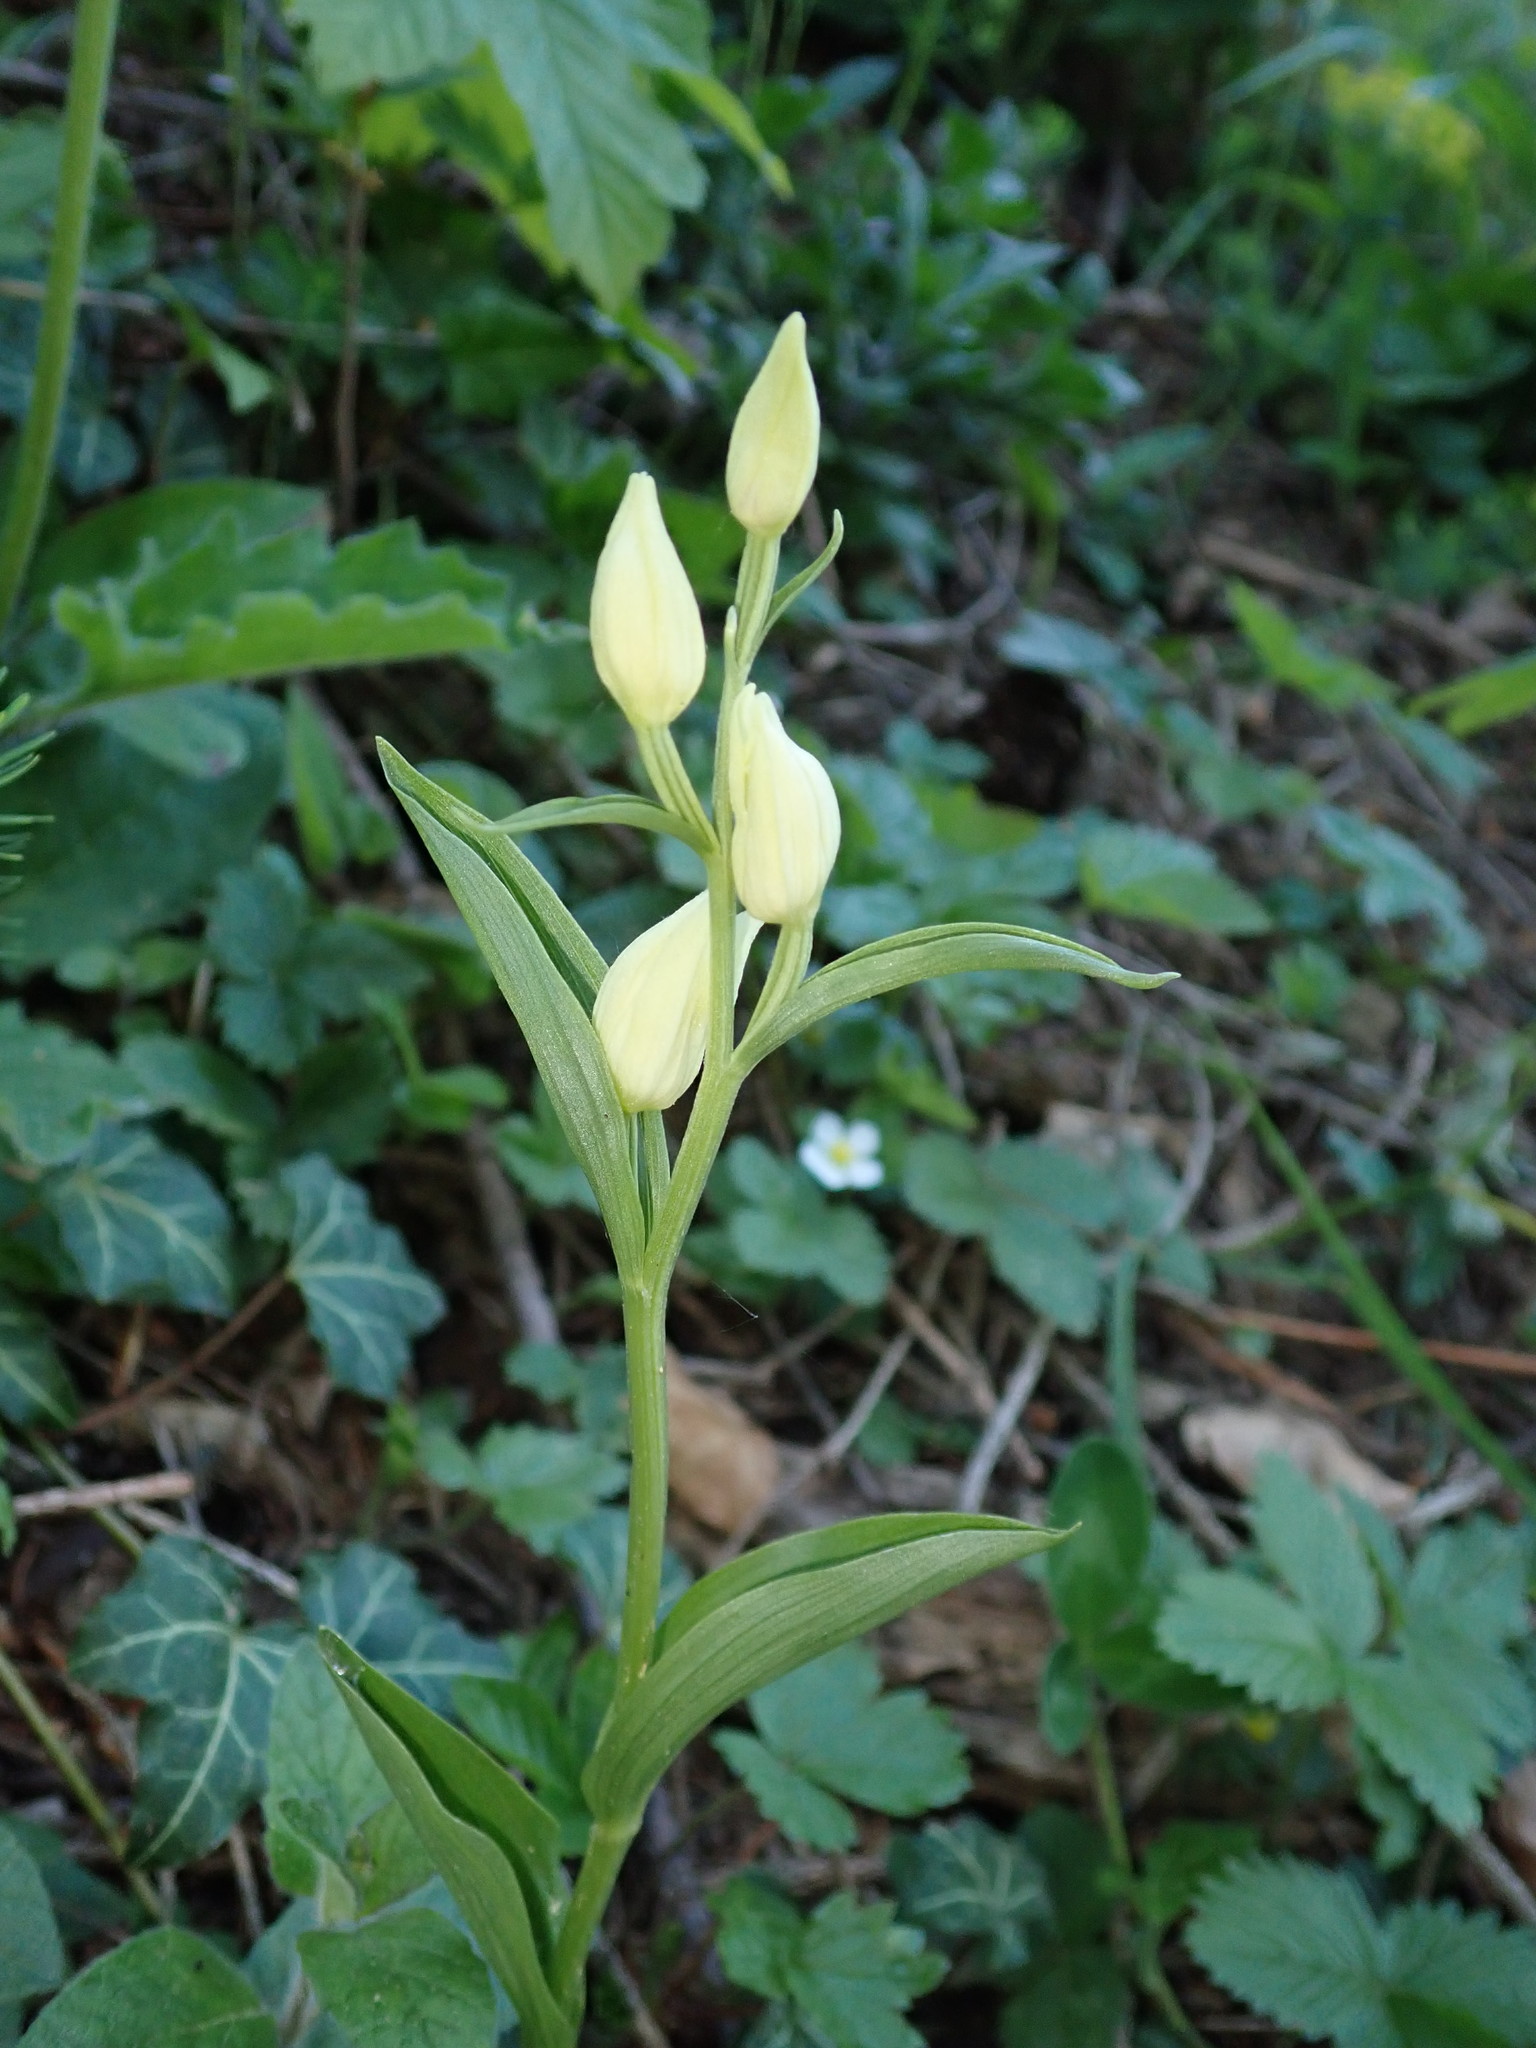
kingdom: Plantae
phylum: Tracheophyta
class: Liliopsida
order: Asparagales
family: Orchidaceae
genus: Cephalanthera
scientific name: Cephalanthera damasonium
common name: White helleborine
